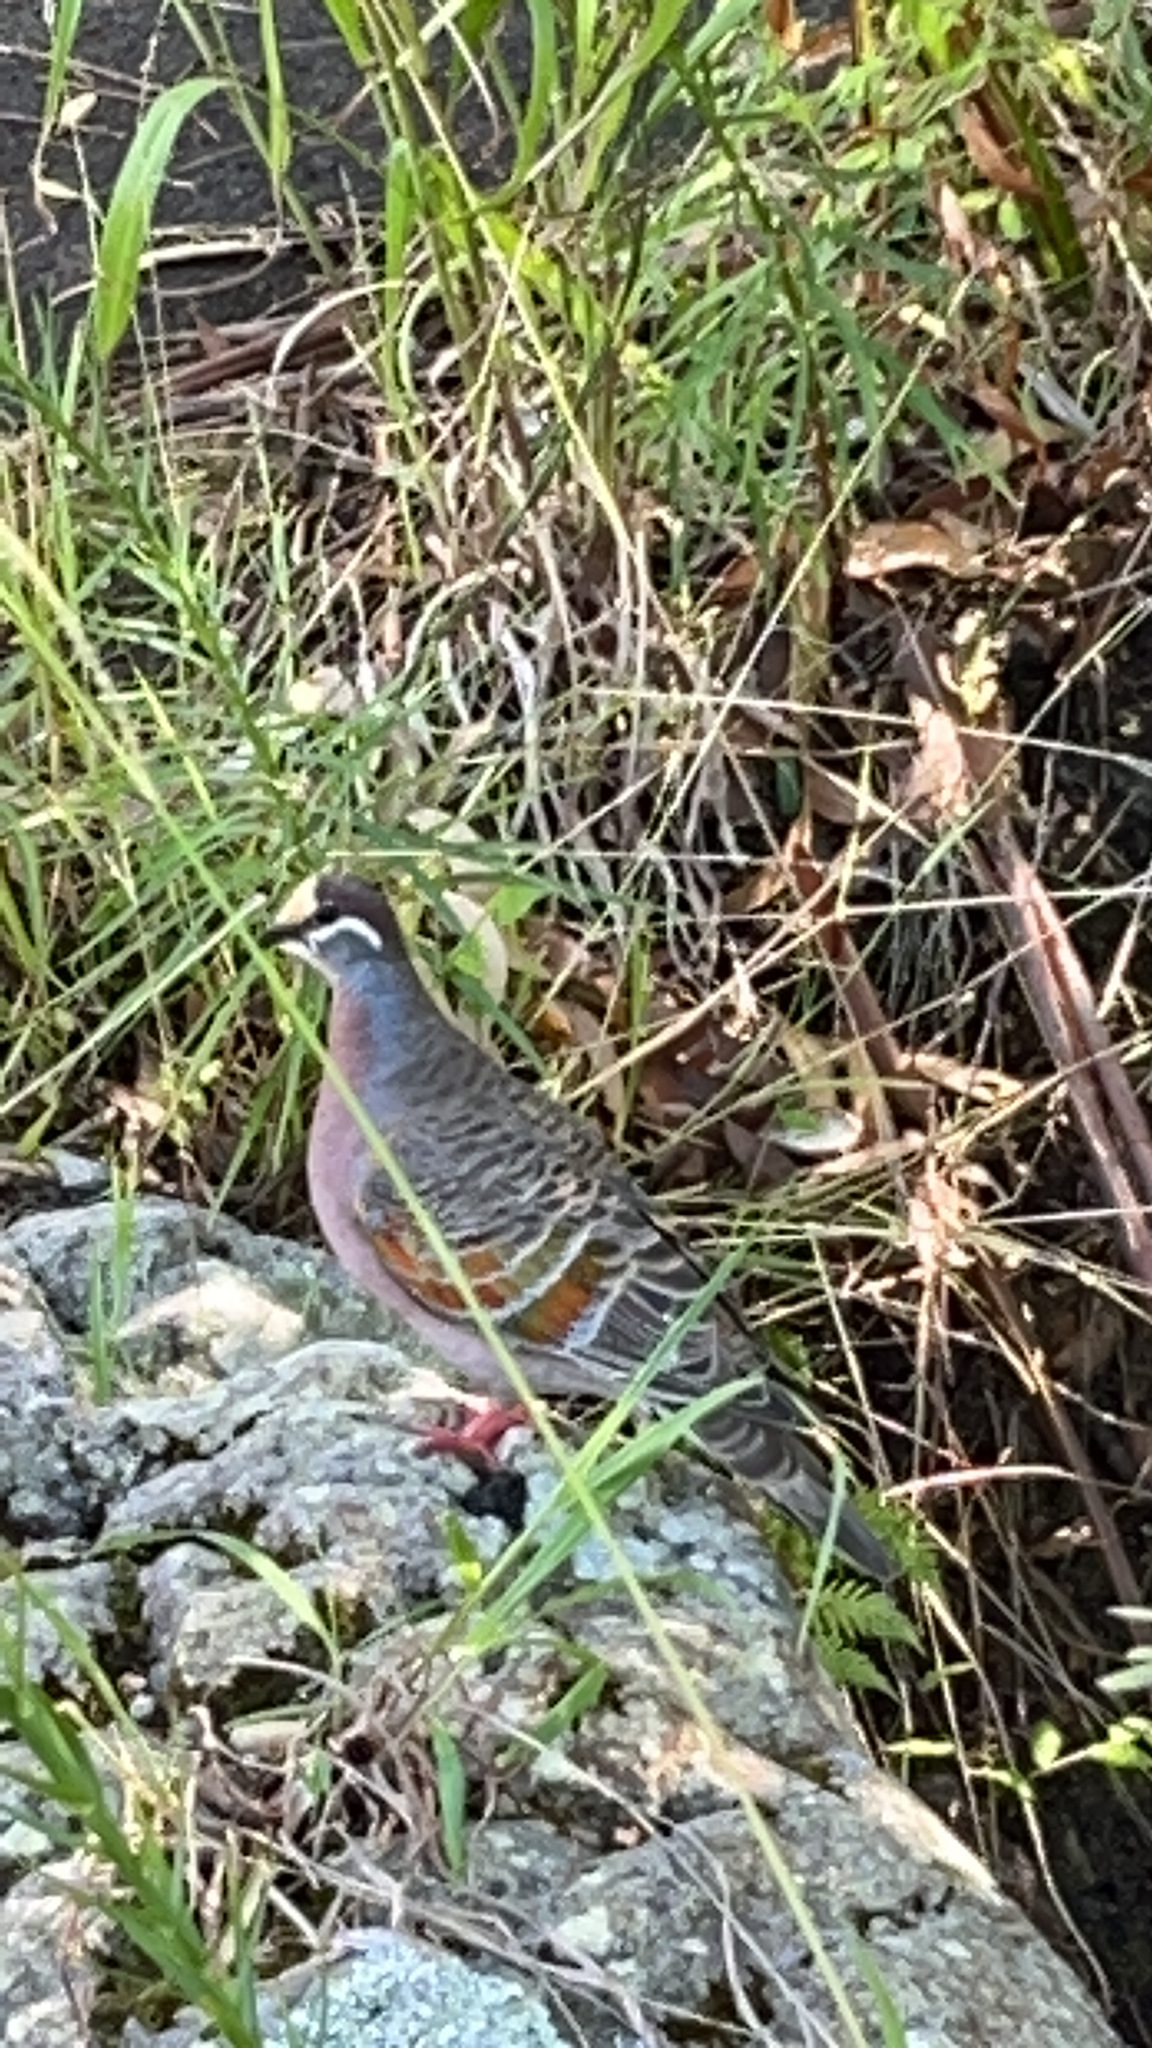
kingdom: Animalia
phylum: Chordata
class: Aves
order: Columbiformes
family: Columbidae
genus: Phaps
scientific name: Phaps chalcoptera
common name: Common bronzewing
